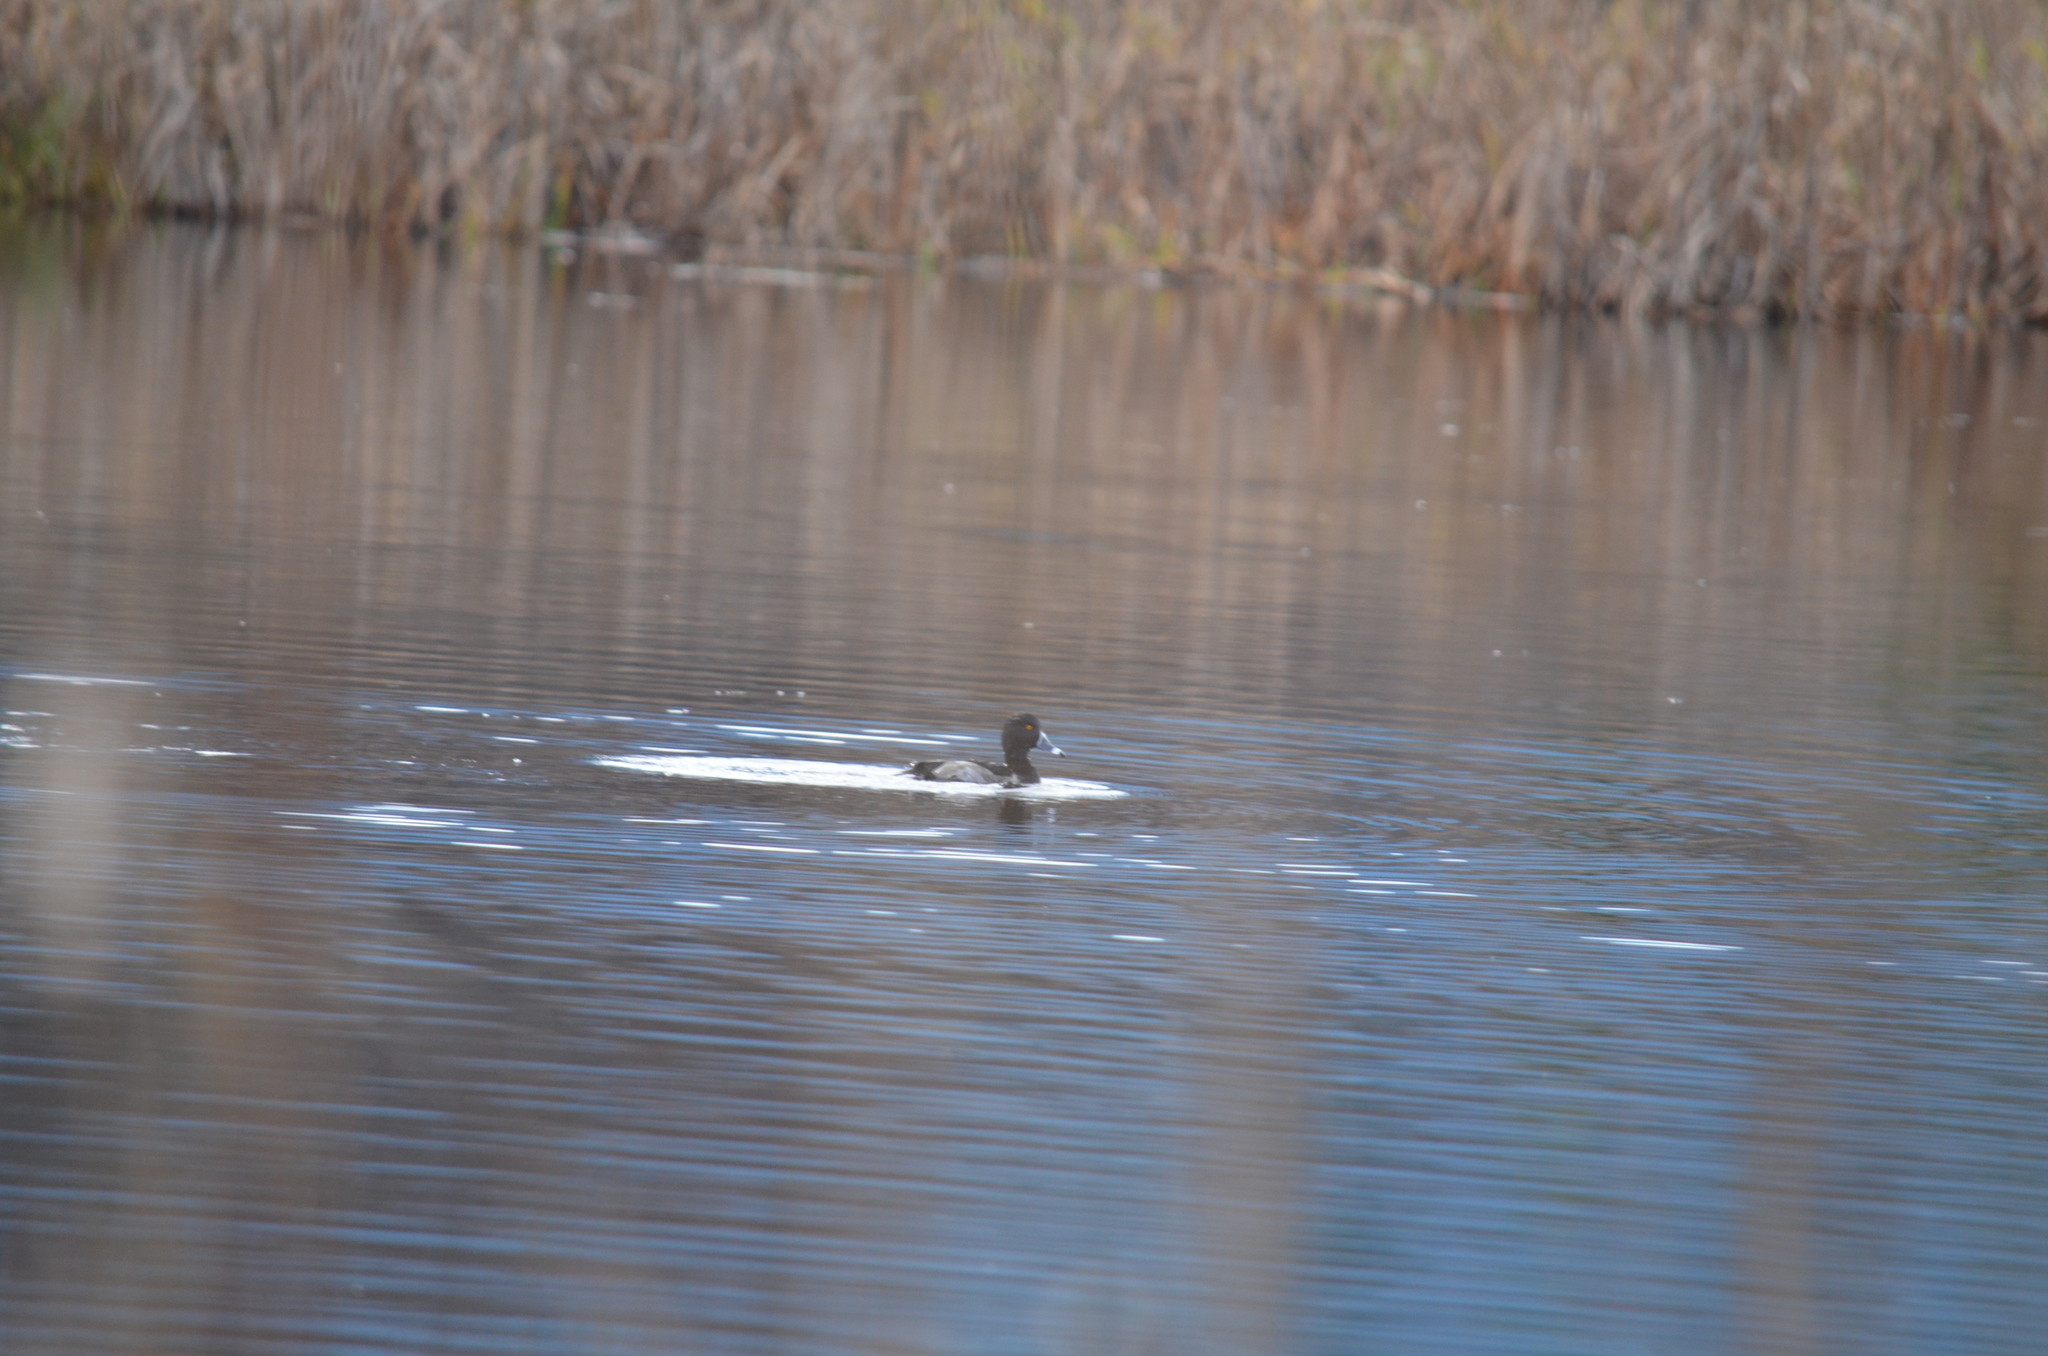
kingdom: Animalia
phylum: Chordata
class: Aves
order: Anseriformes
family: Anatidae
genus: Aythya
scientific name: Aythya collaris
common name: Ring-necked duck
